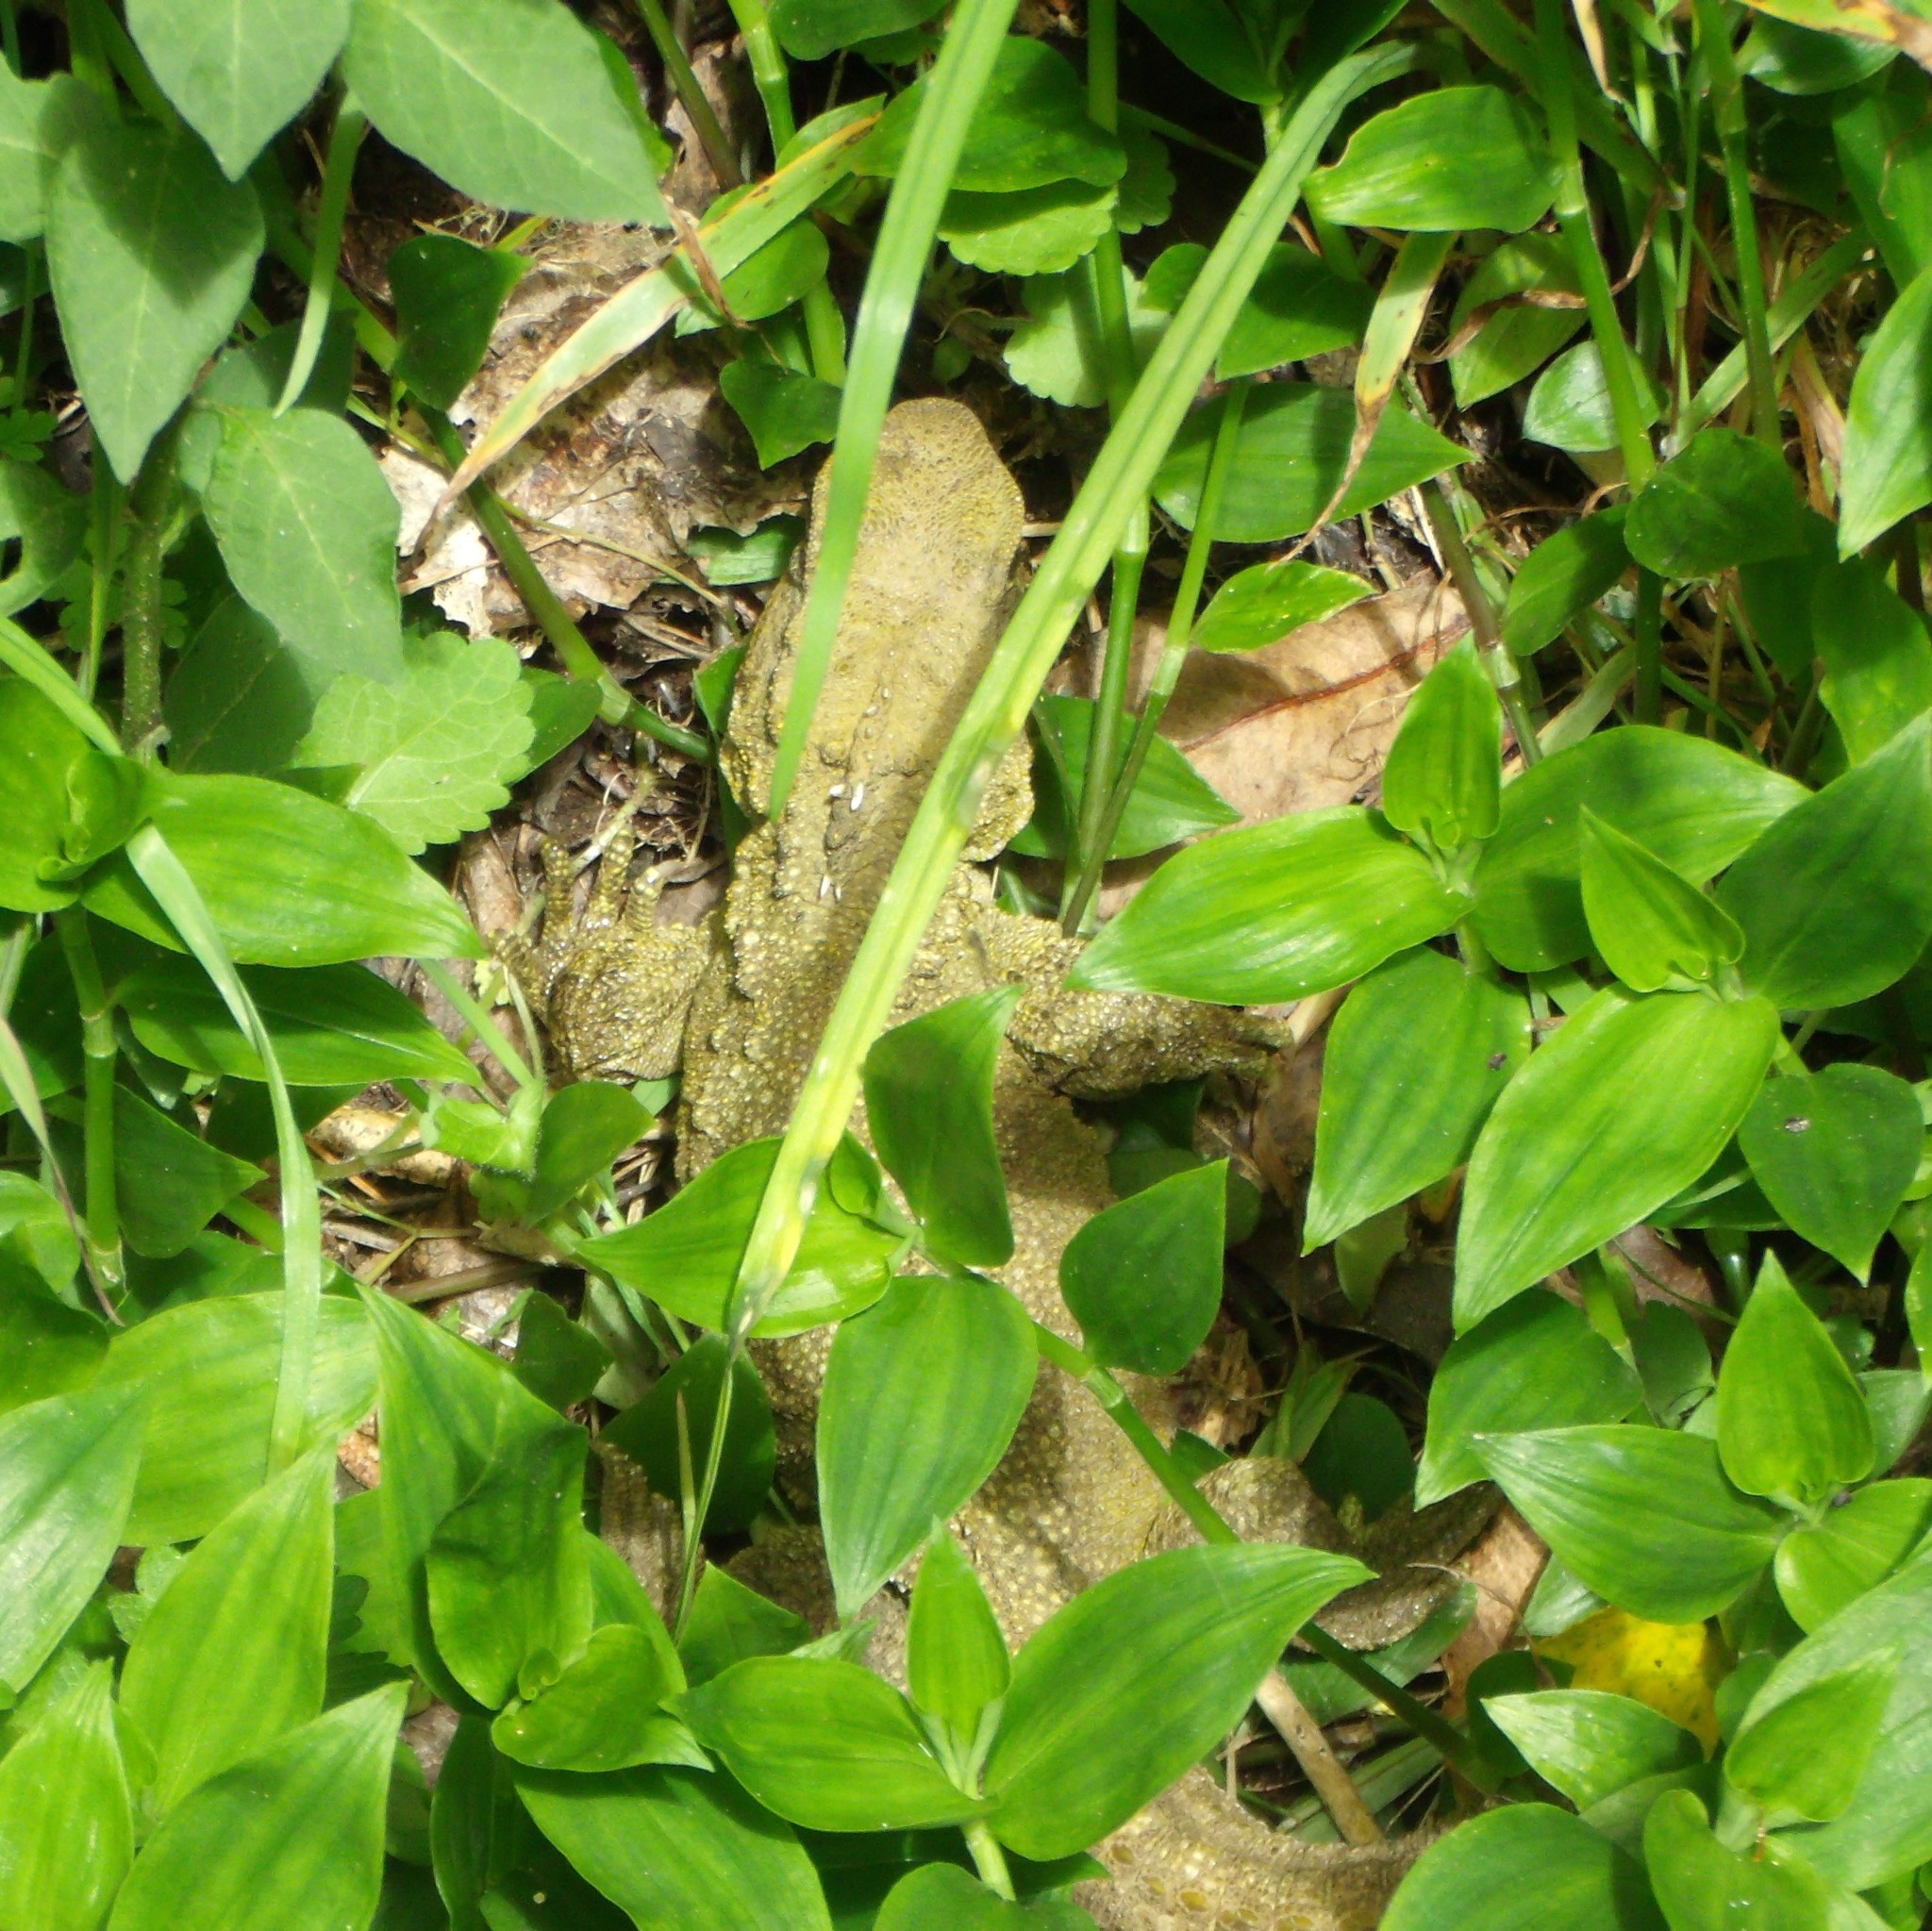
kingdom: Animalia
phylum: Chordata
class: Sphenodontia
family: Sphenodontidae
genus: Sphenodon
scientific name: Sphenodon punctatus
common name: Tuatara
